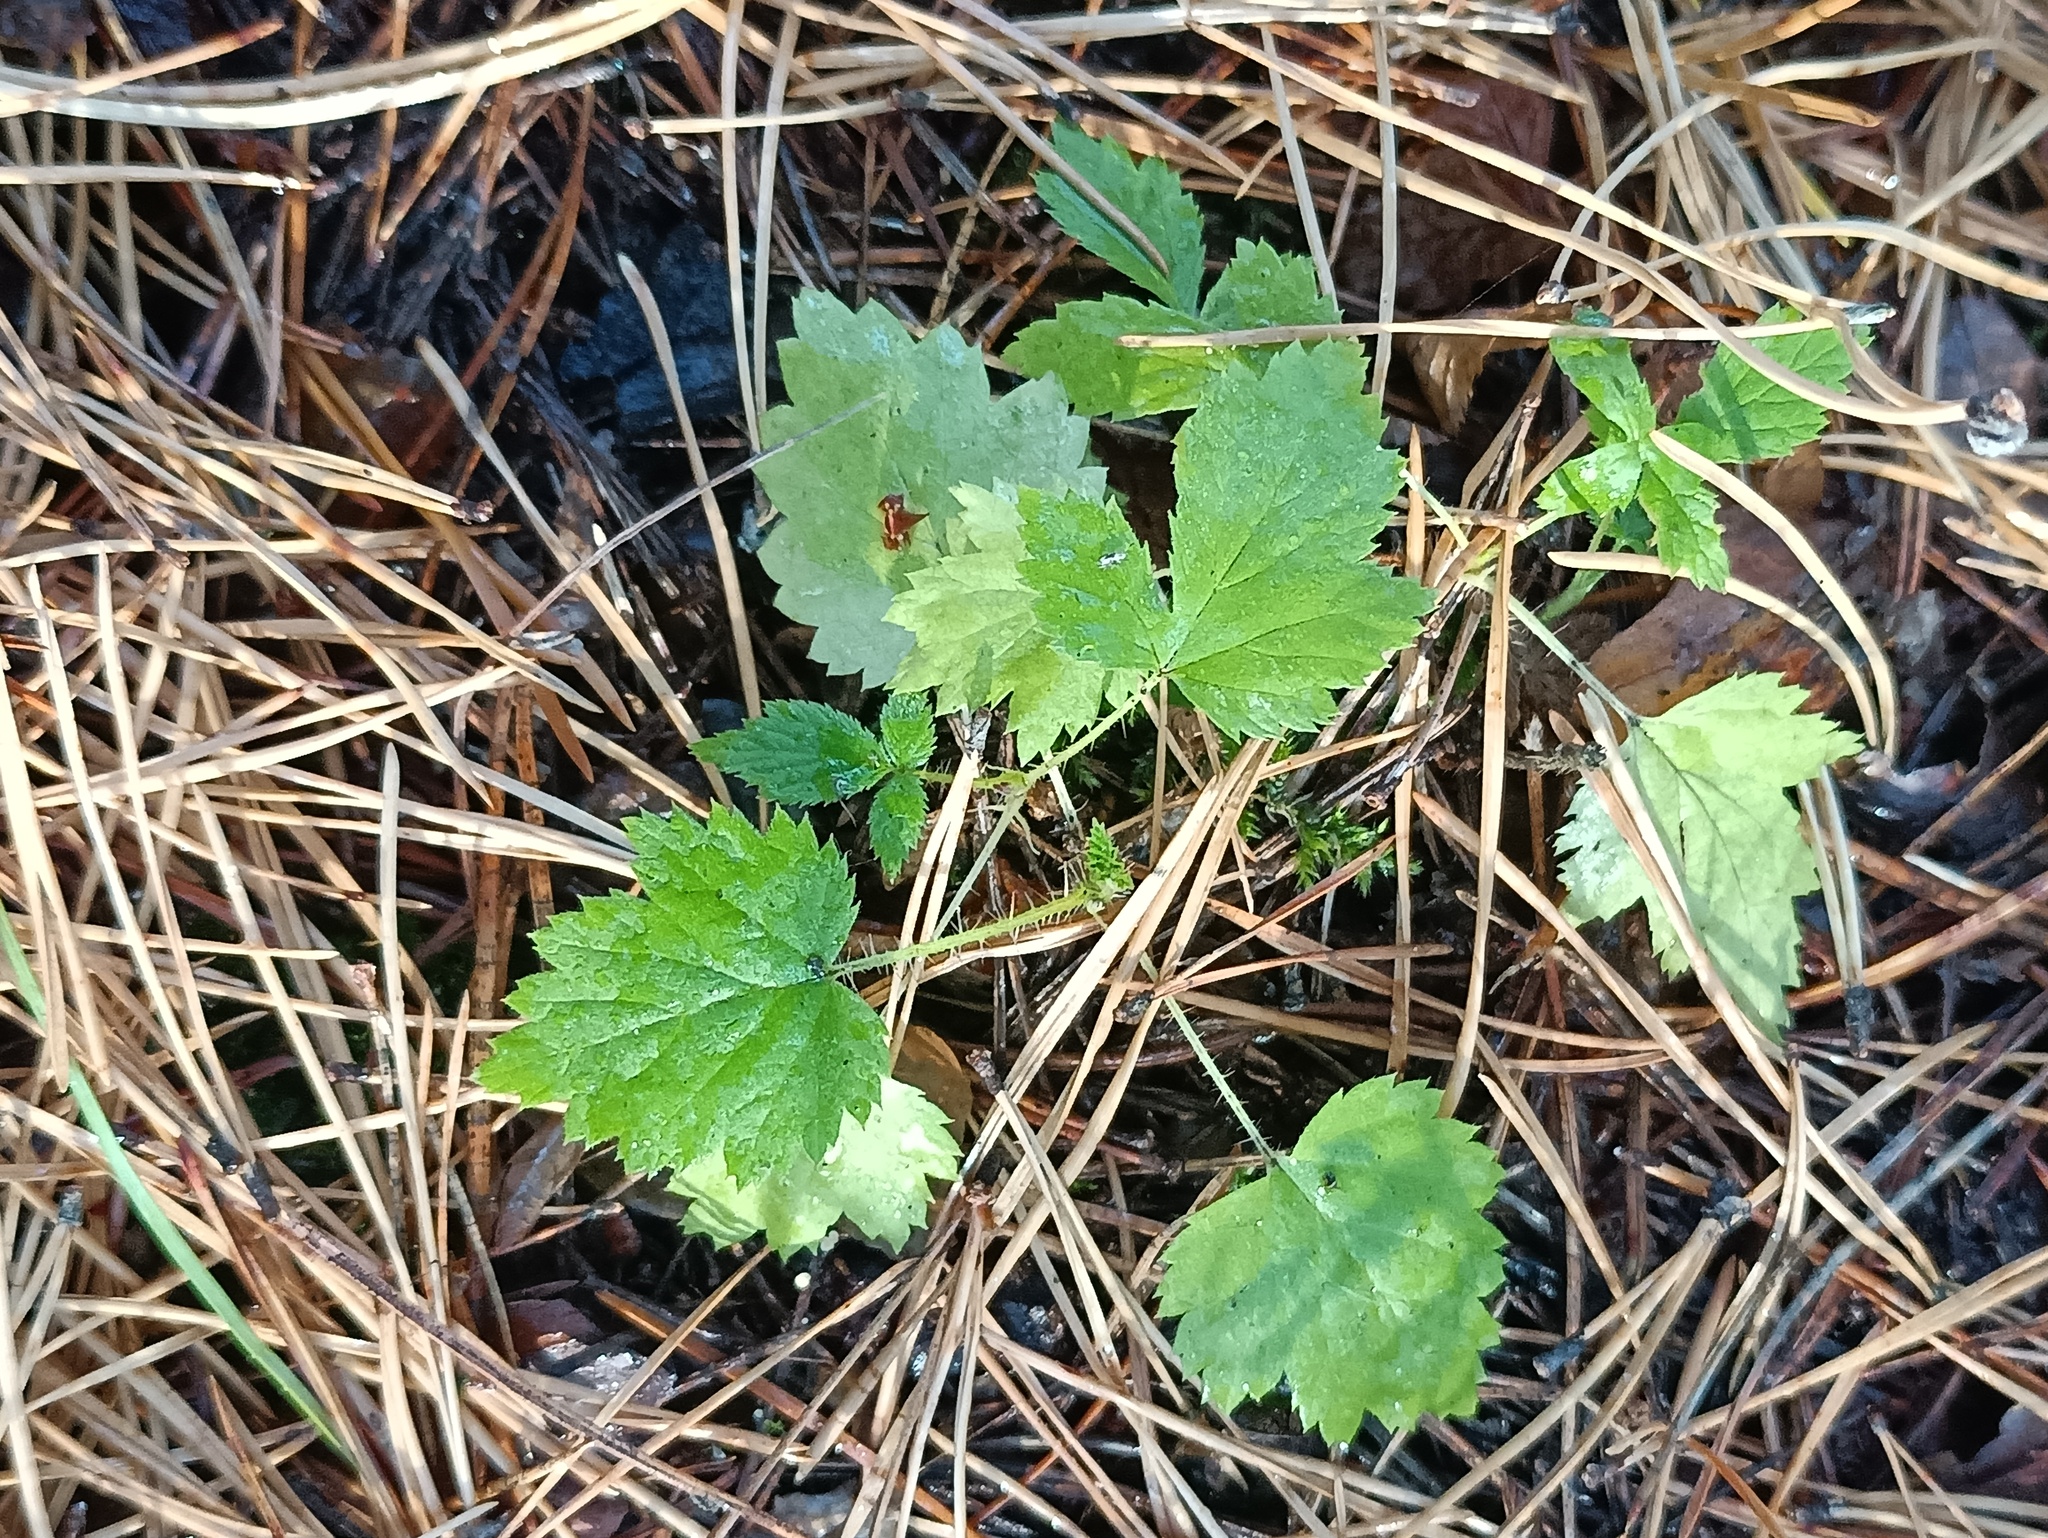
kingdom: Plantae
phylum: Tracheophyta
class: Magnoliopsida
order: Rosales
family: Cannabaceae
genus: Humulus
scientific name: Humulus lupulus
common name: Hop
